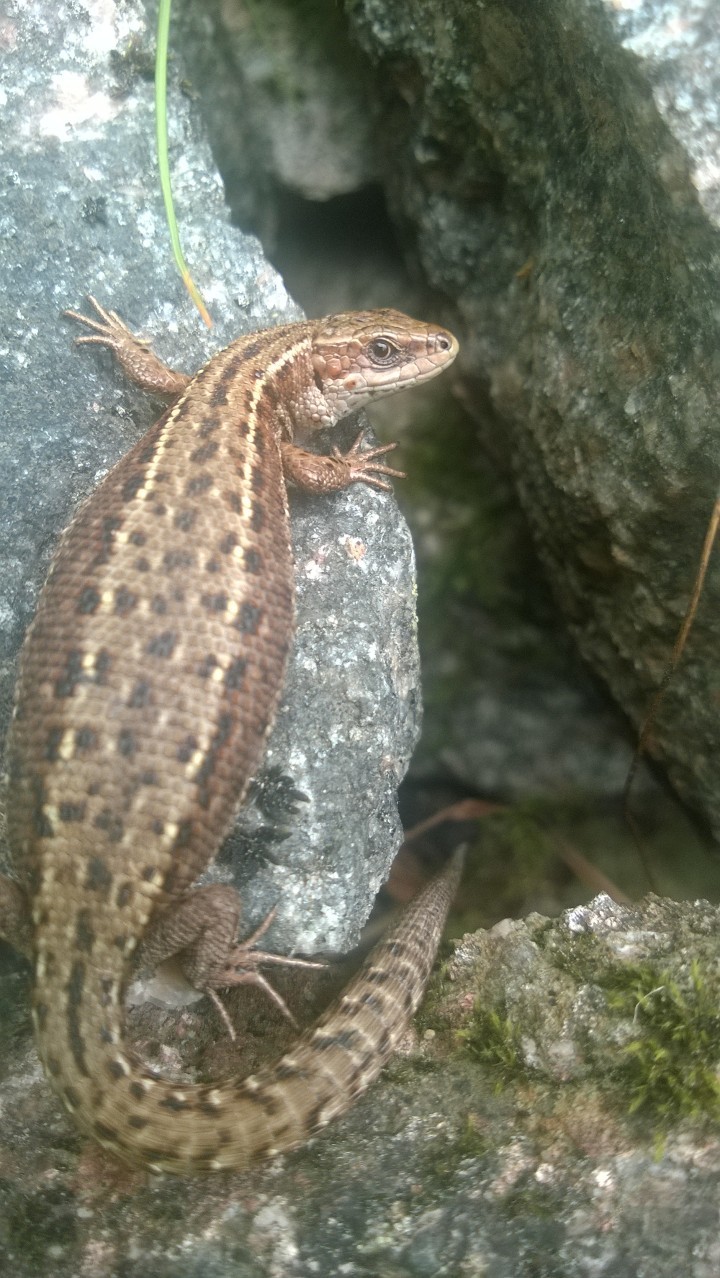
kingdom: Animalia
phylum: Chordata
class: Squamata
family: Lacertidae
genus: Zootoca
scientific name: Zootoca vivipara
